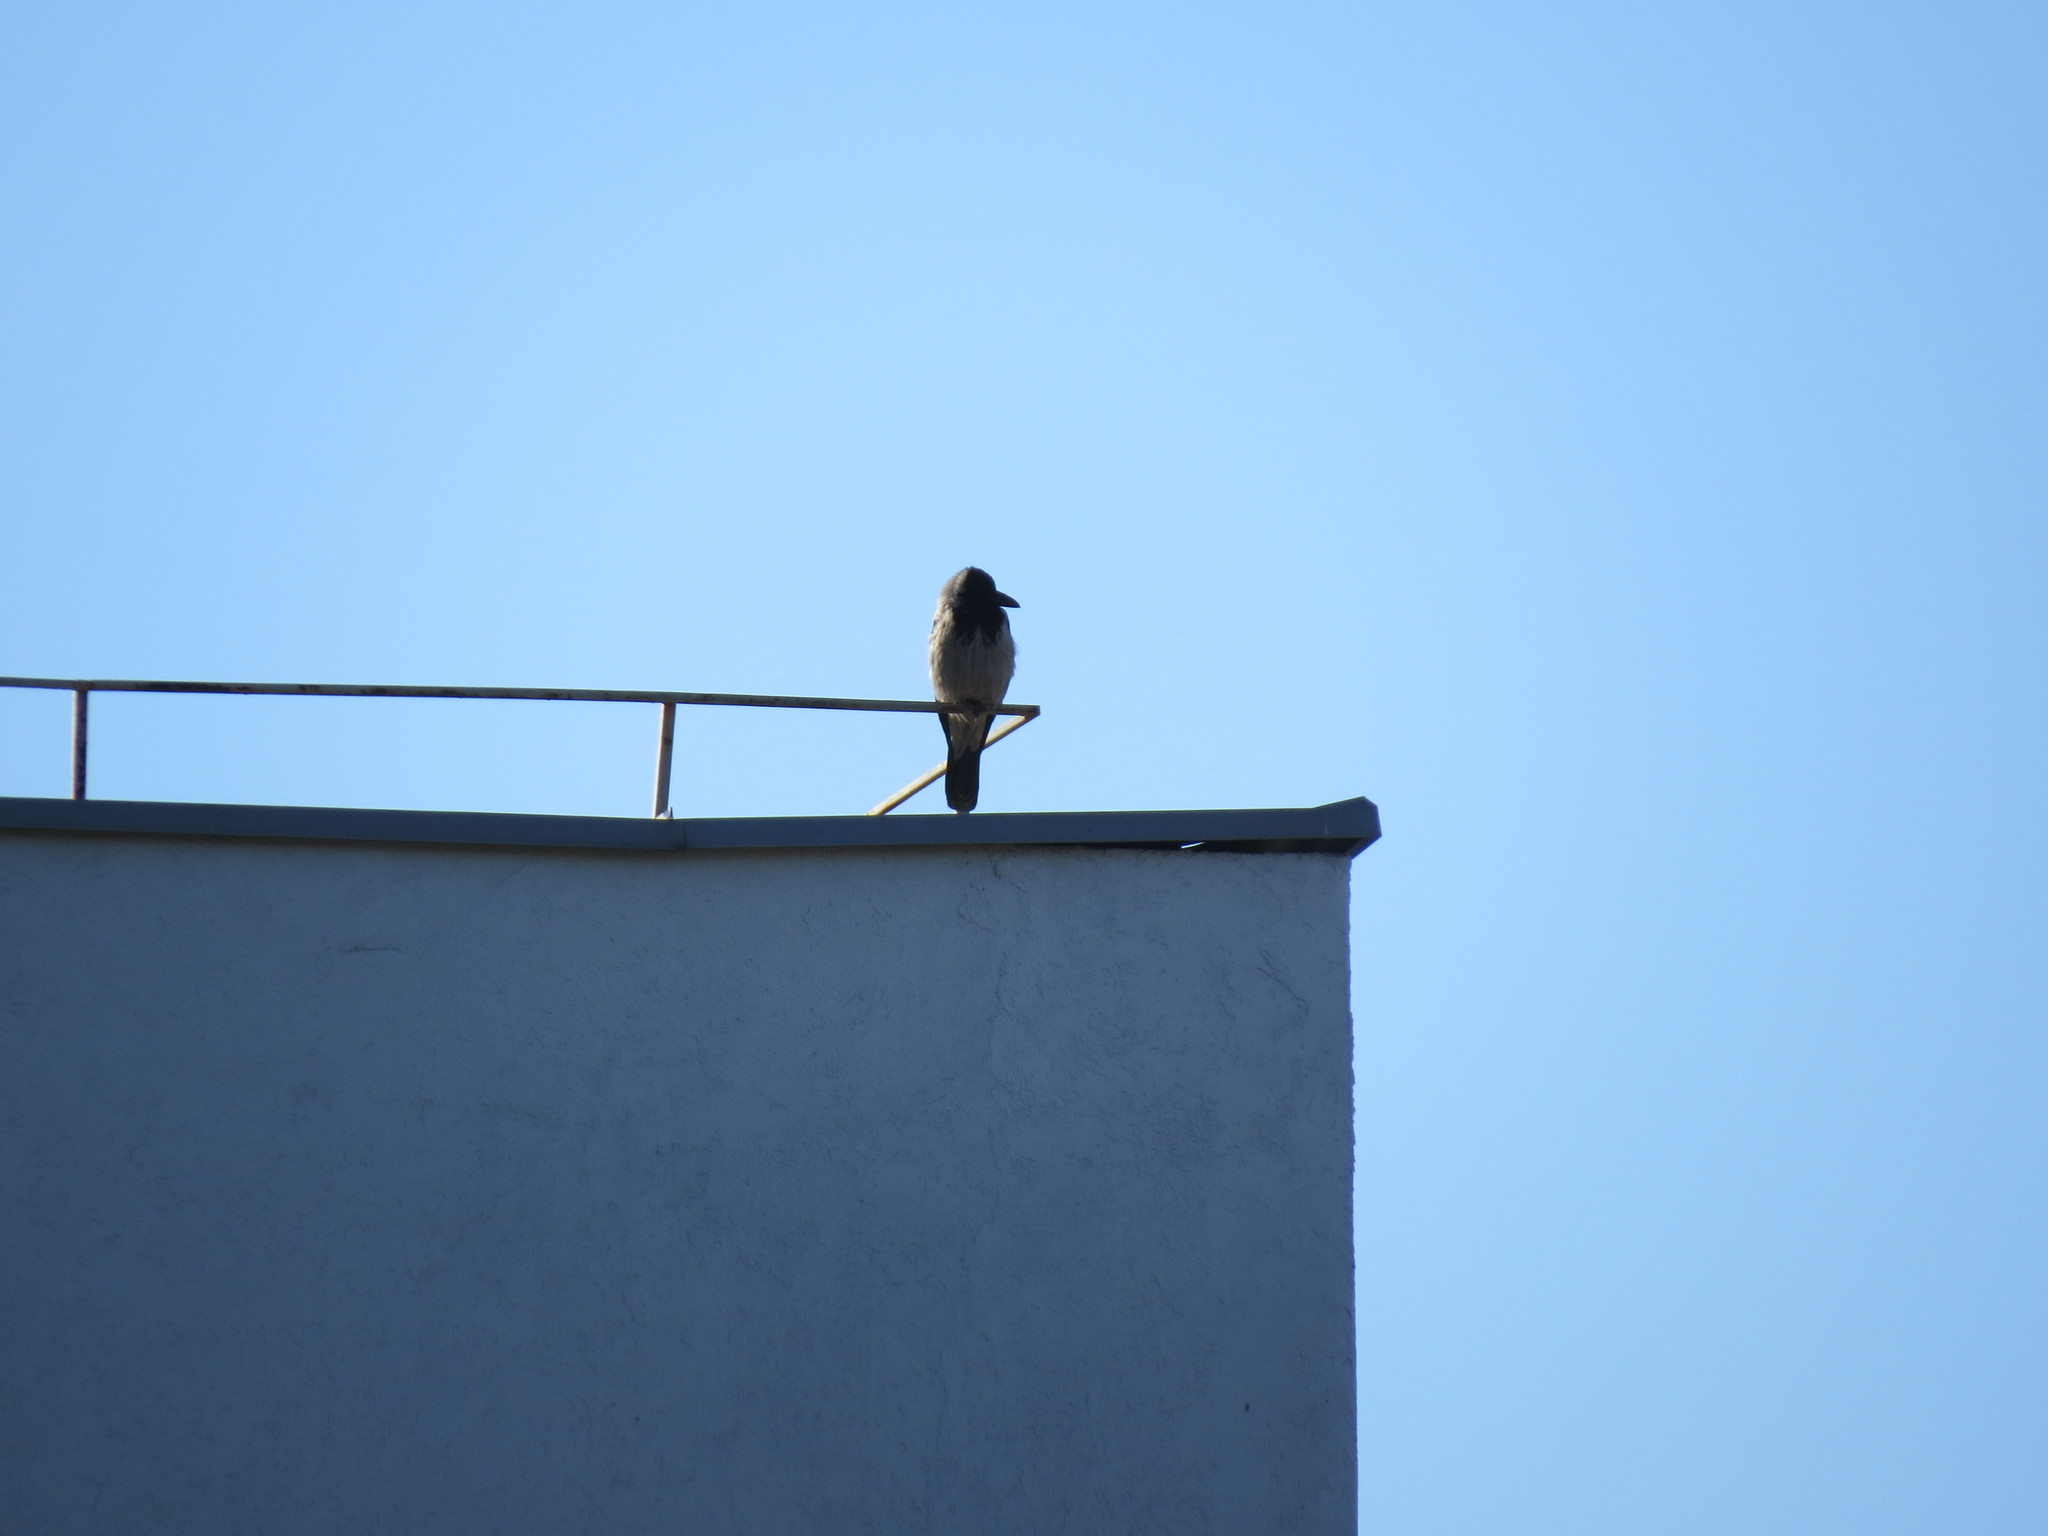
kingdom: Animalia
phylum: Chordata
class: Aves
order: Passeriformes
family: Corvidae
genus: Corvus
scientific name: Corvus cornix
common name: Hooded crow
